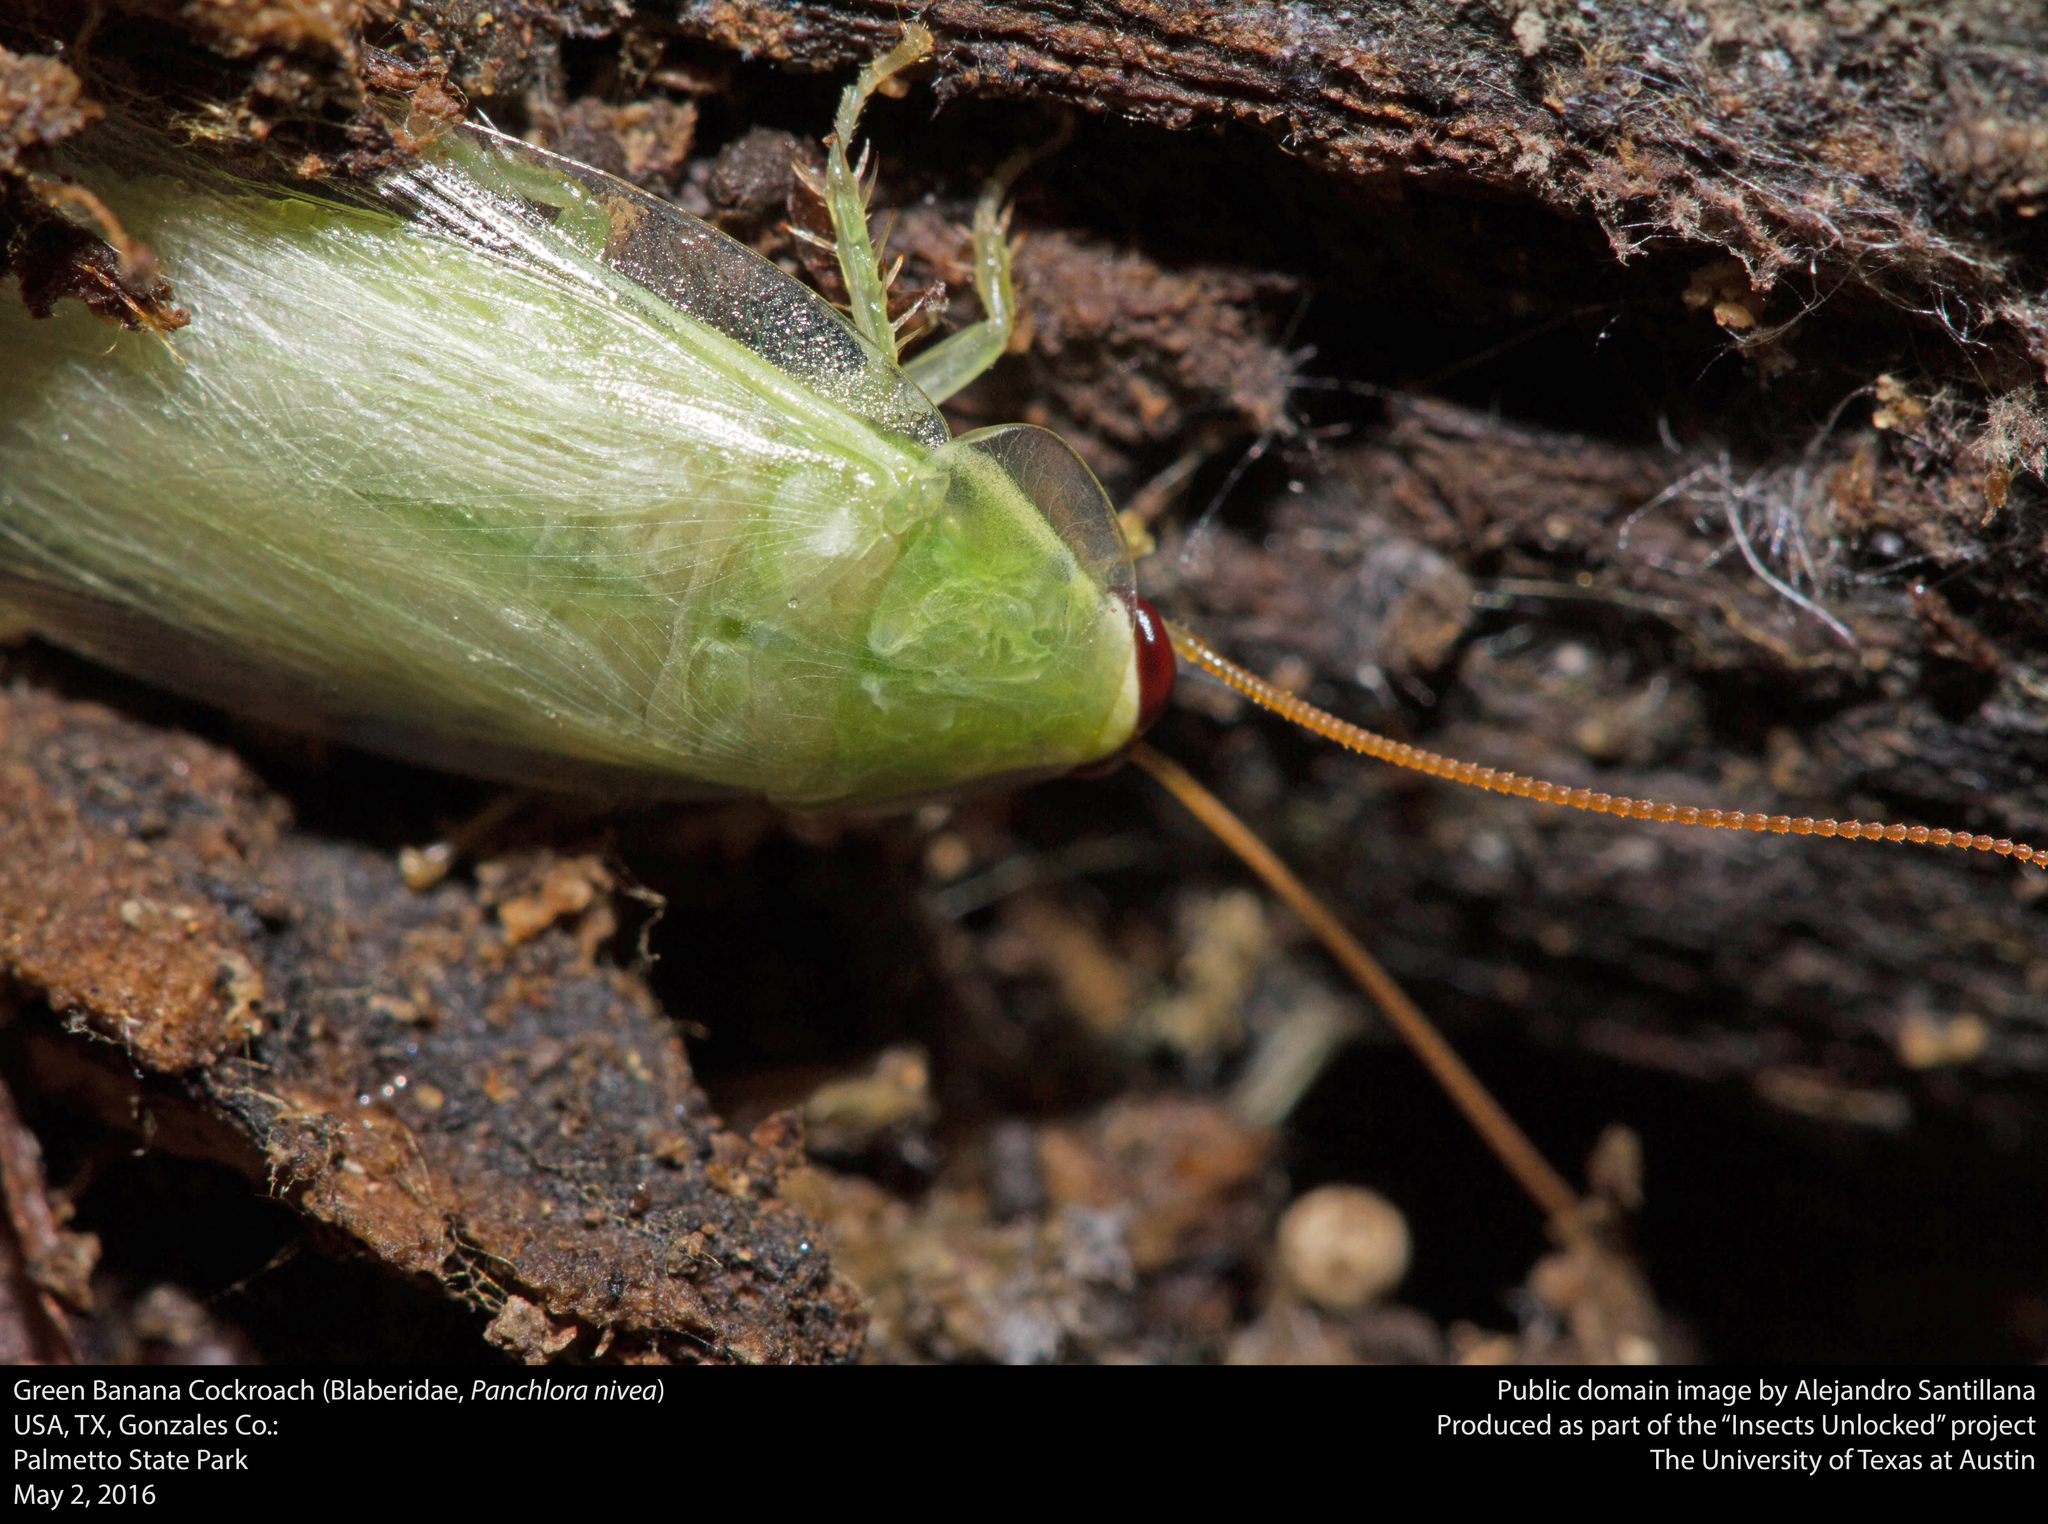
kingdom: Animalia
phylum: Arthropoda
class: Insecta
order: Blattodea
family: Blaberidae
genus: Panchlora
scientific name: Panchlora nivea
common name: Cuban cockroach
